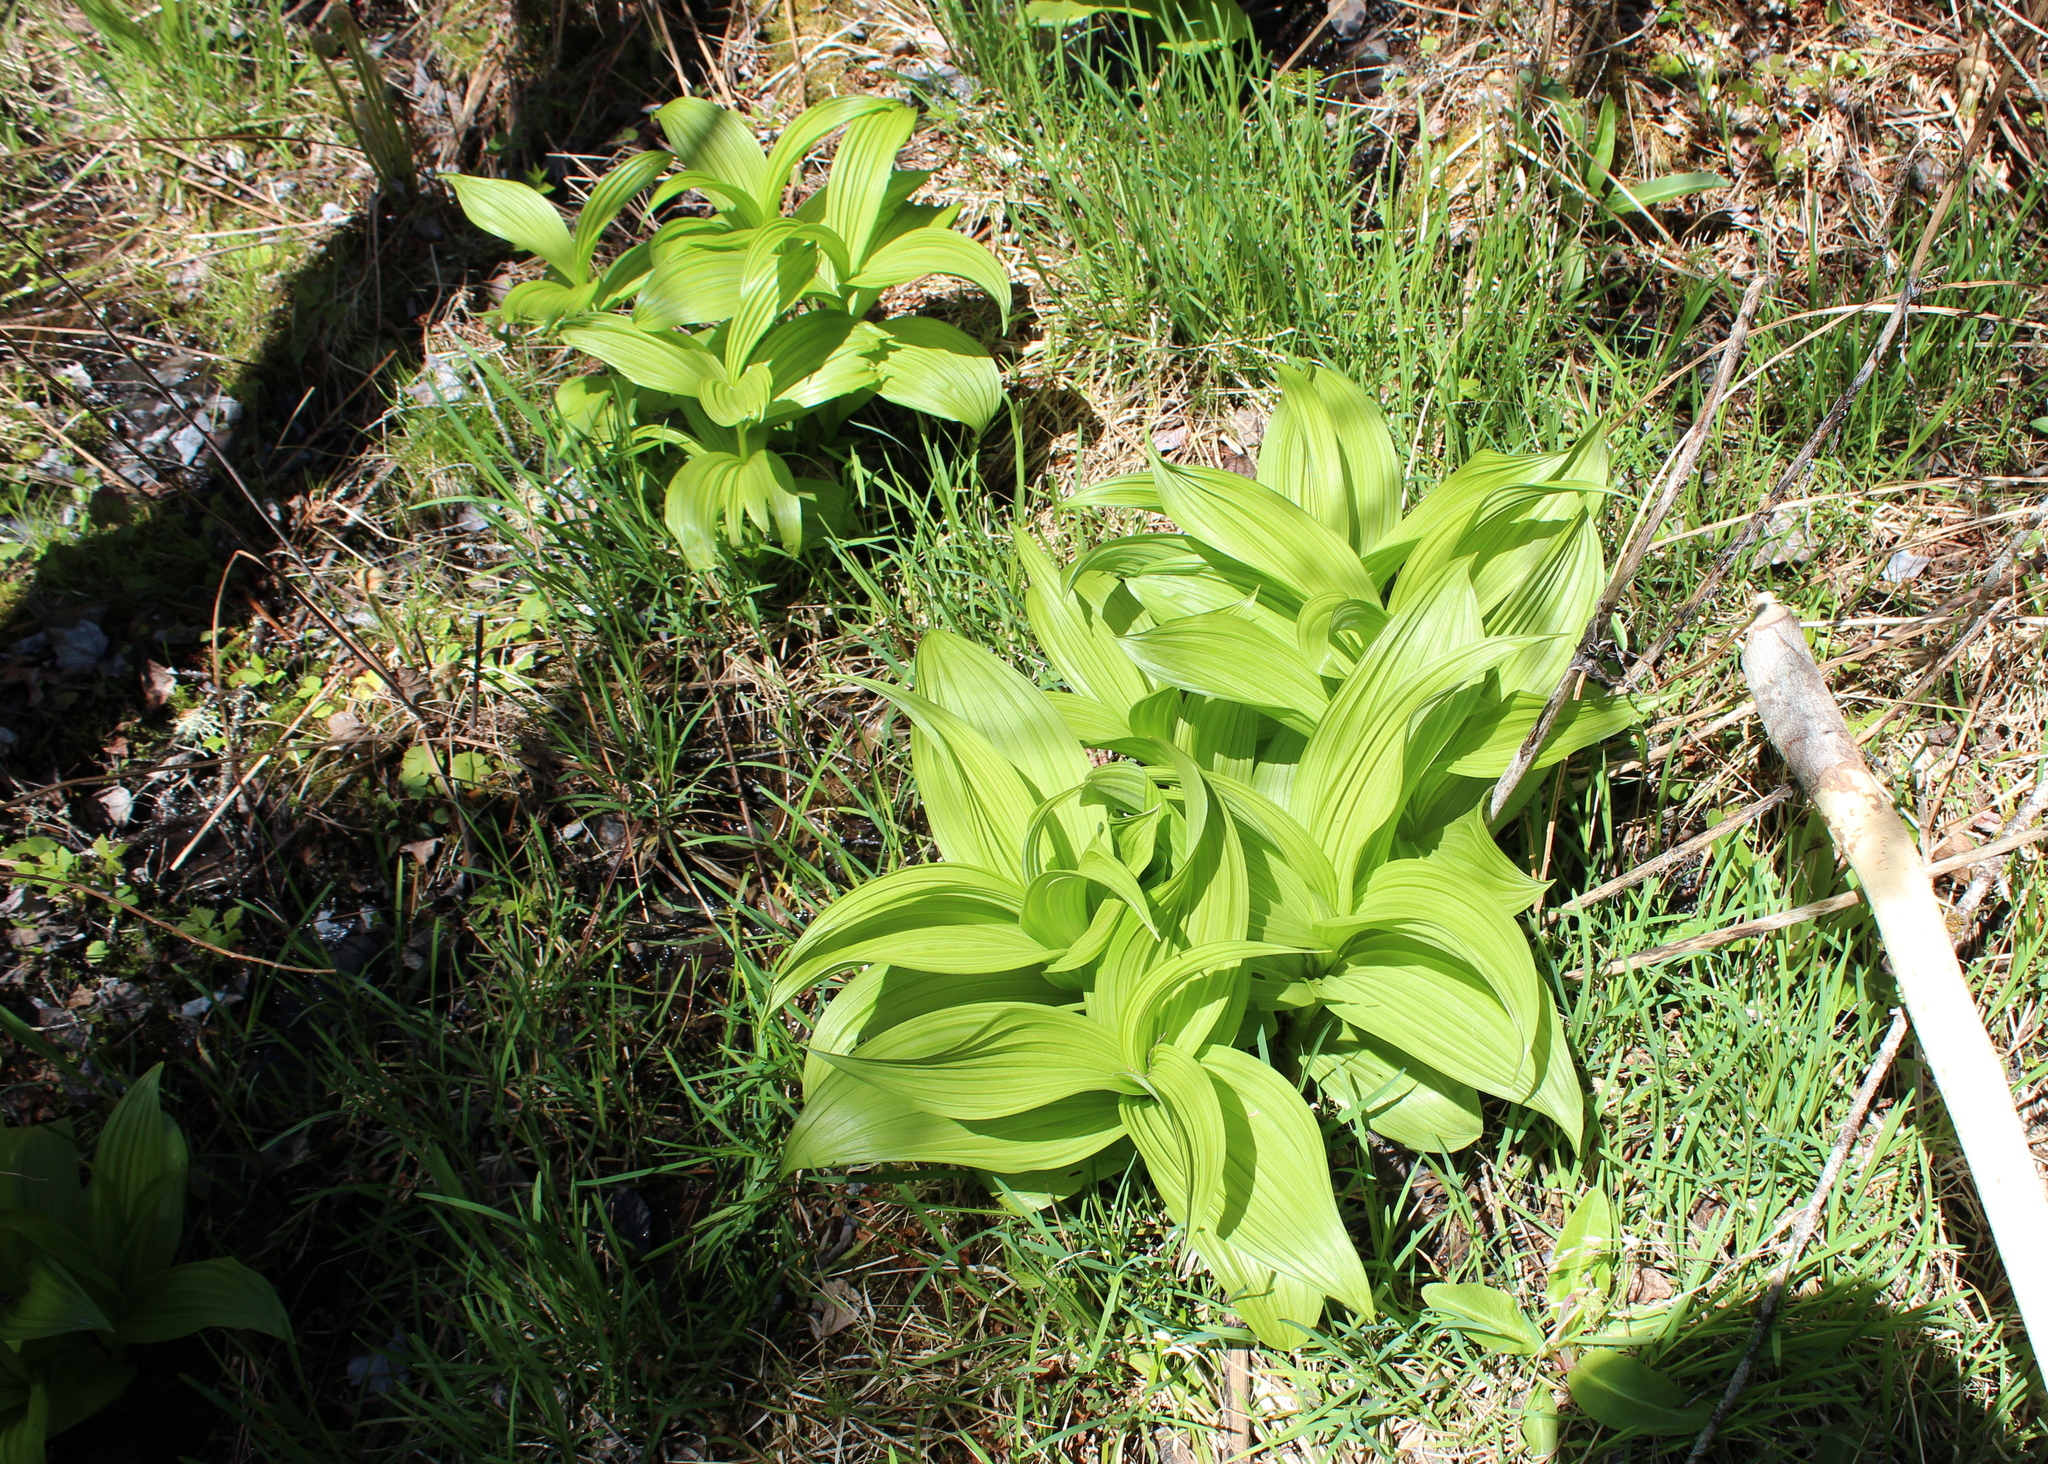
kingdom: Plantae
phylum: Tracheophyta
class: Liliopsida
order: Liliales
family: Melanthiaceae
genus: Veratrum
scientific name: Veratrum viride
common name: American false hellebore
